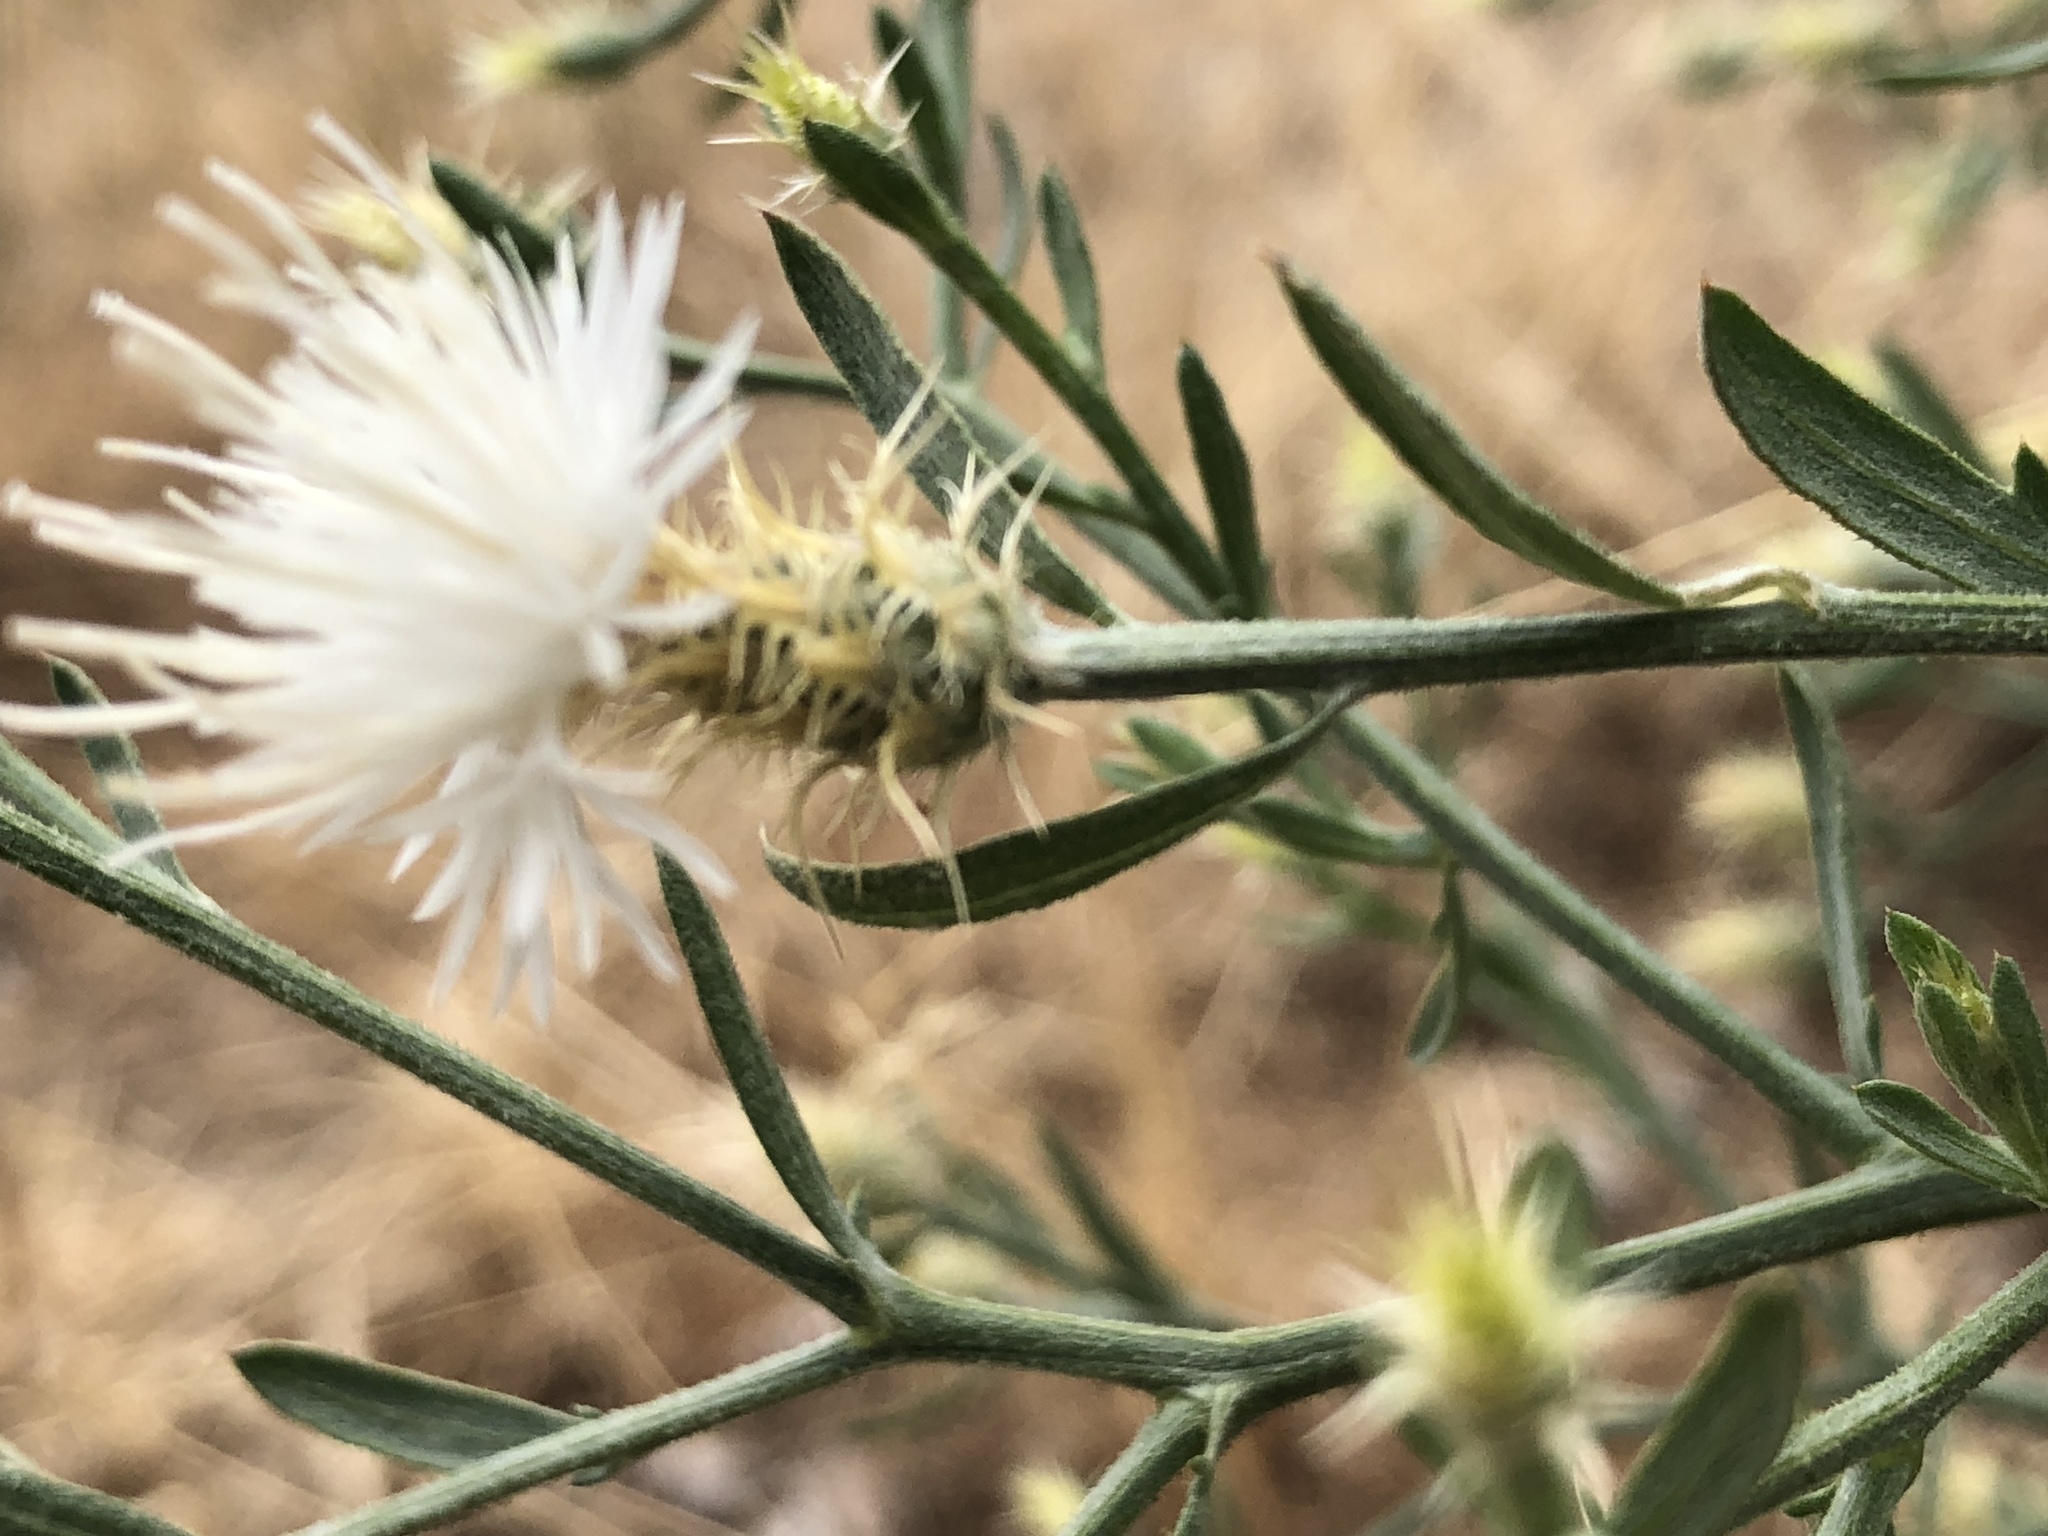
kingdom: Plantae
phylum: Tracheophyta
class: Magnoliopsida
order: Asterales
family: Asteraceae
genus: Centaurea
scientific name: Centaurea diffusa
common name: Diffuse knapweed
